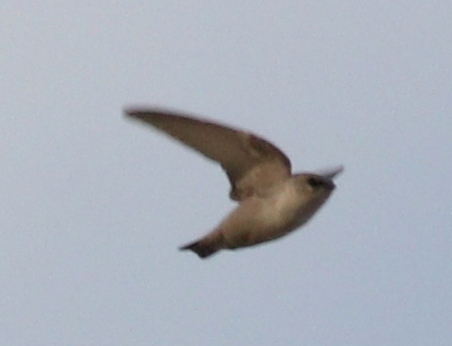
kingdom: Animalia
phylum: Chordata
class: Aves
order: Passeriformes
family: Hirundinidae
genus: Ptyonoprogne
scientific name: Ptyonoprogne fuligula
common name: Rock martin
